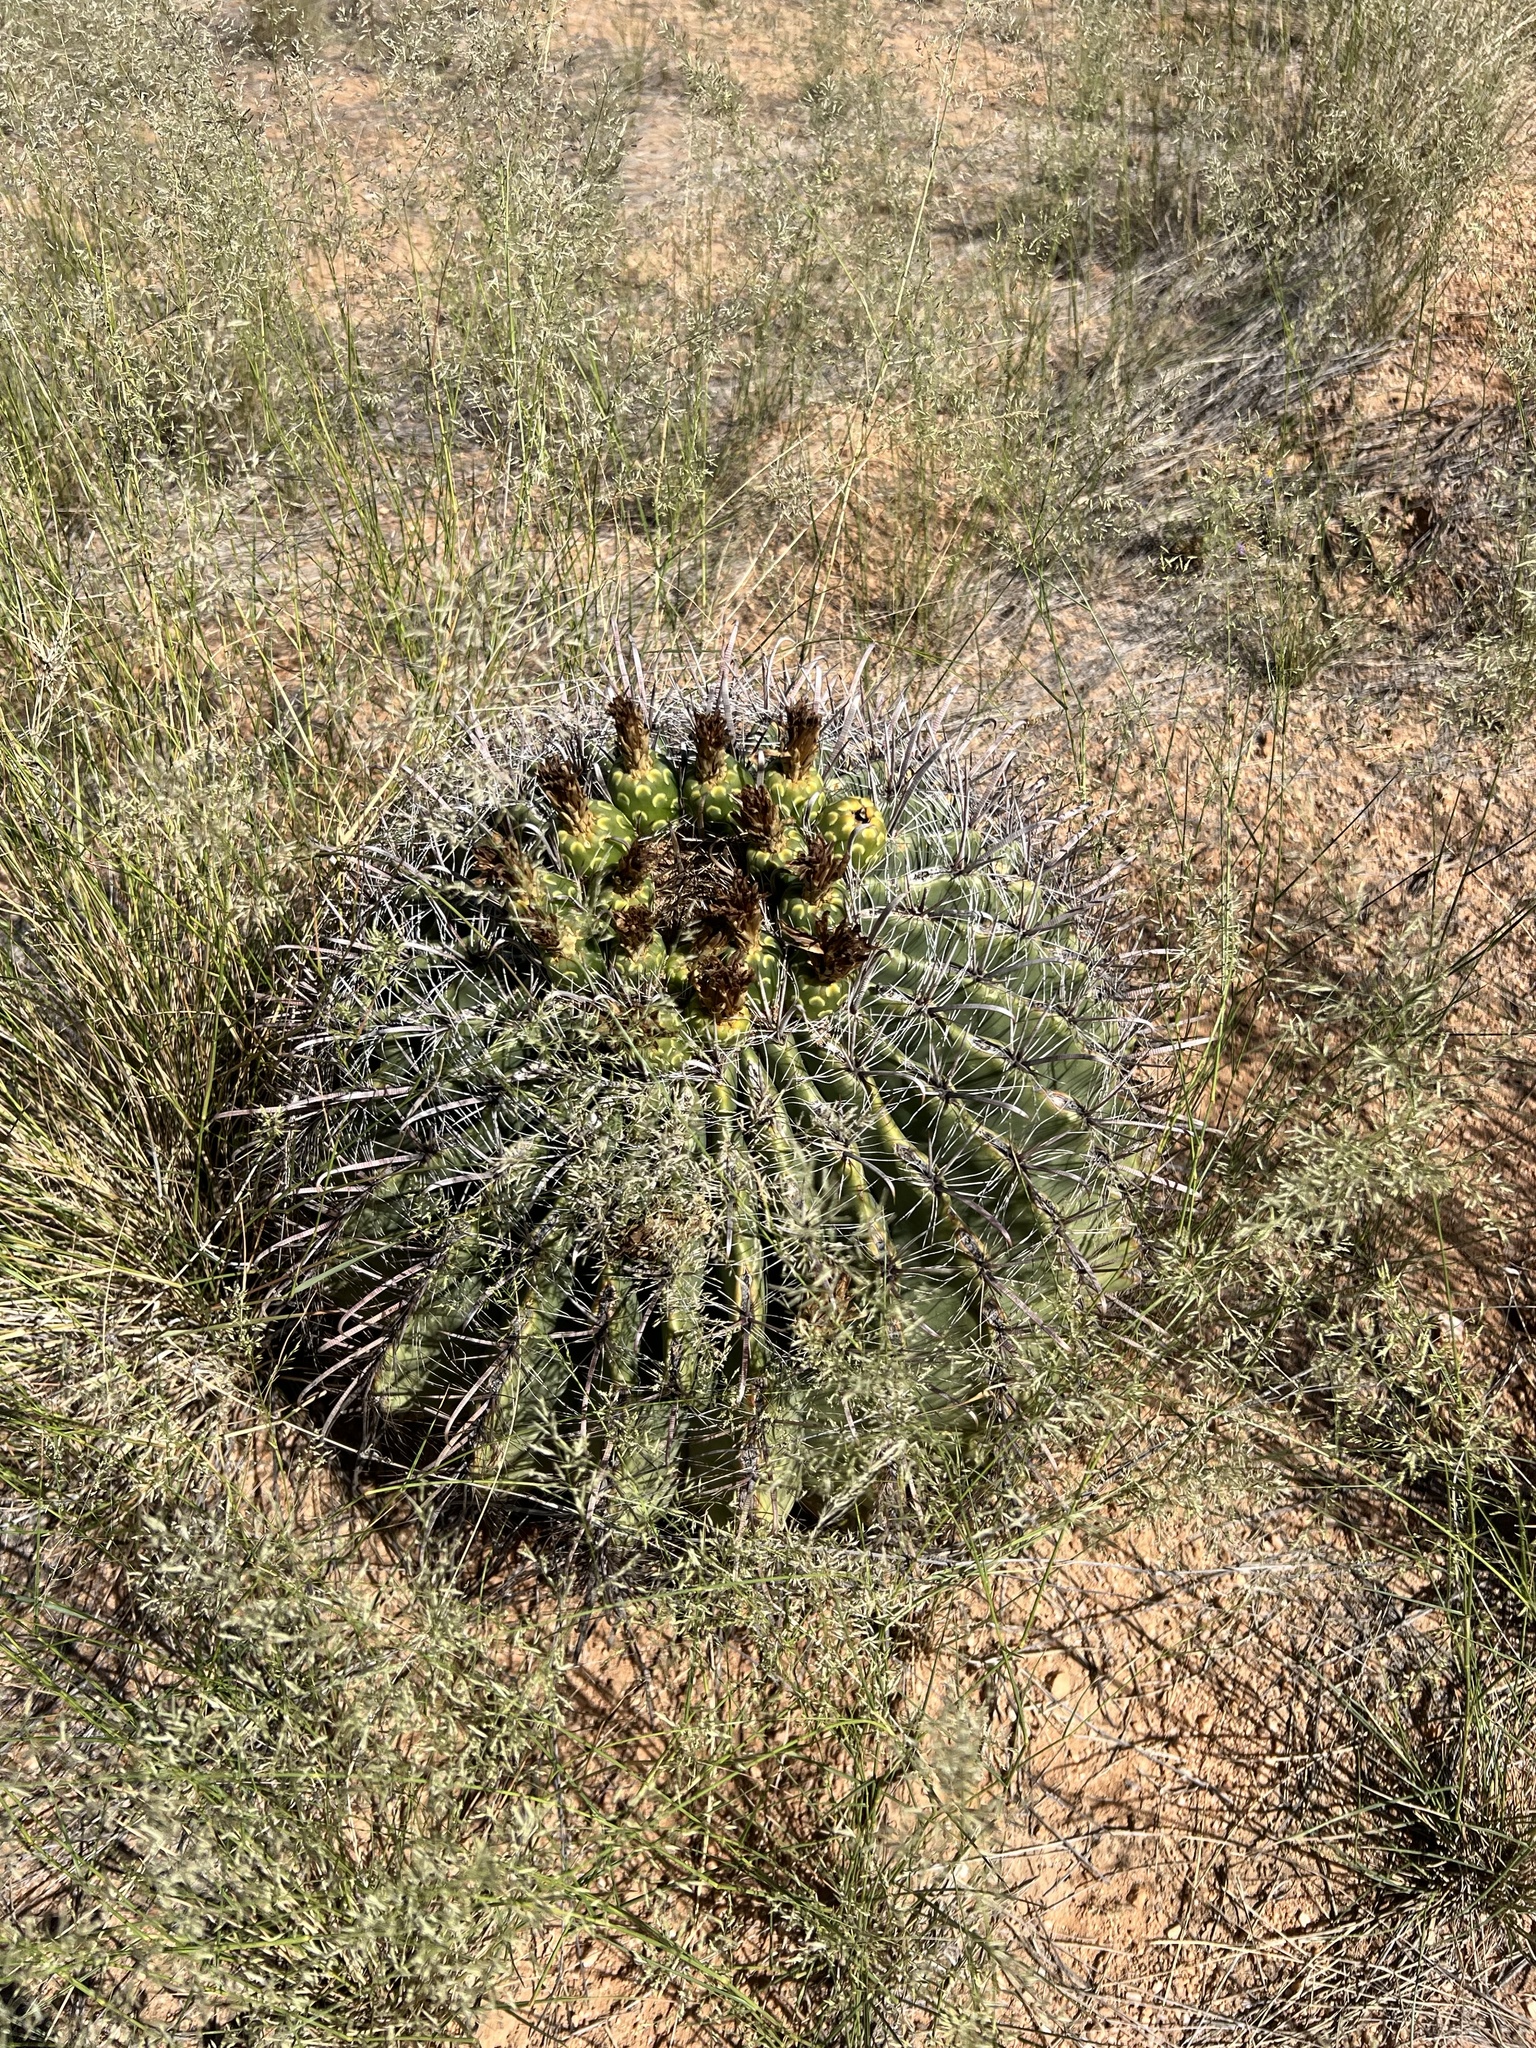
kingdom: Plantae
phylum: Tracheophyta
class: Magnoliopsida
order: Caryophyllales
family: Cactaceae
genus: Ferocactus
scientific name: Ferocactus wislizeni
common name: Candy barrel cactus
